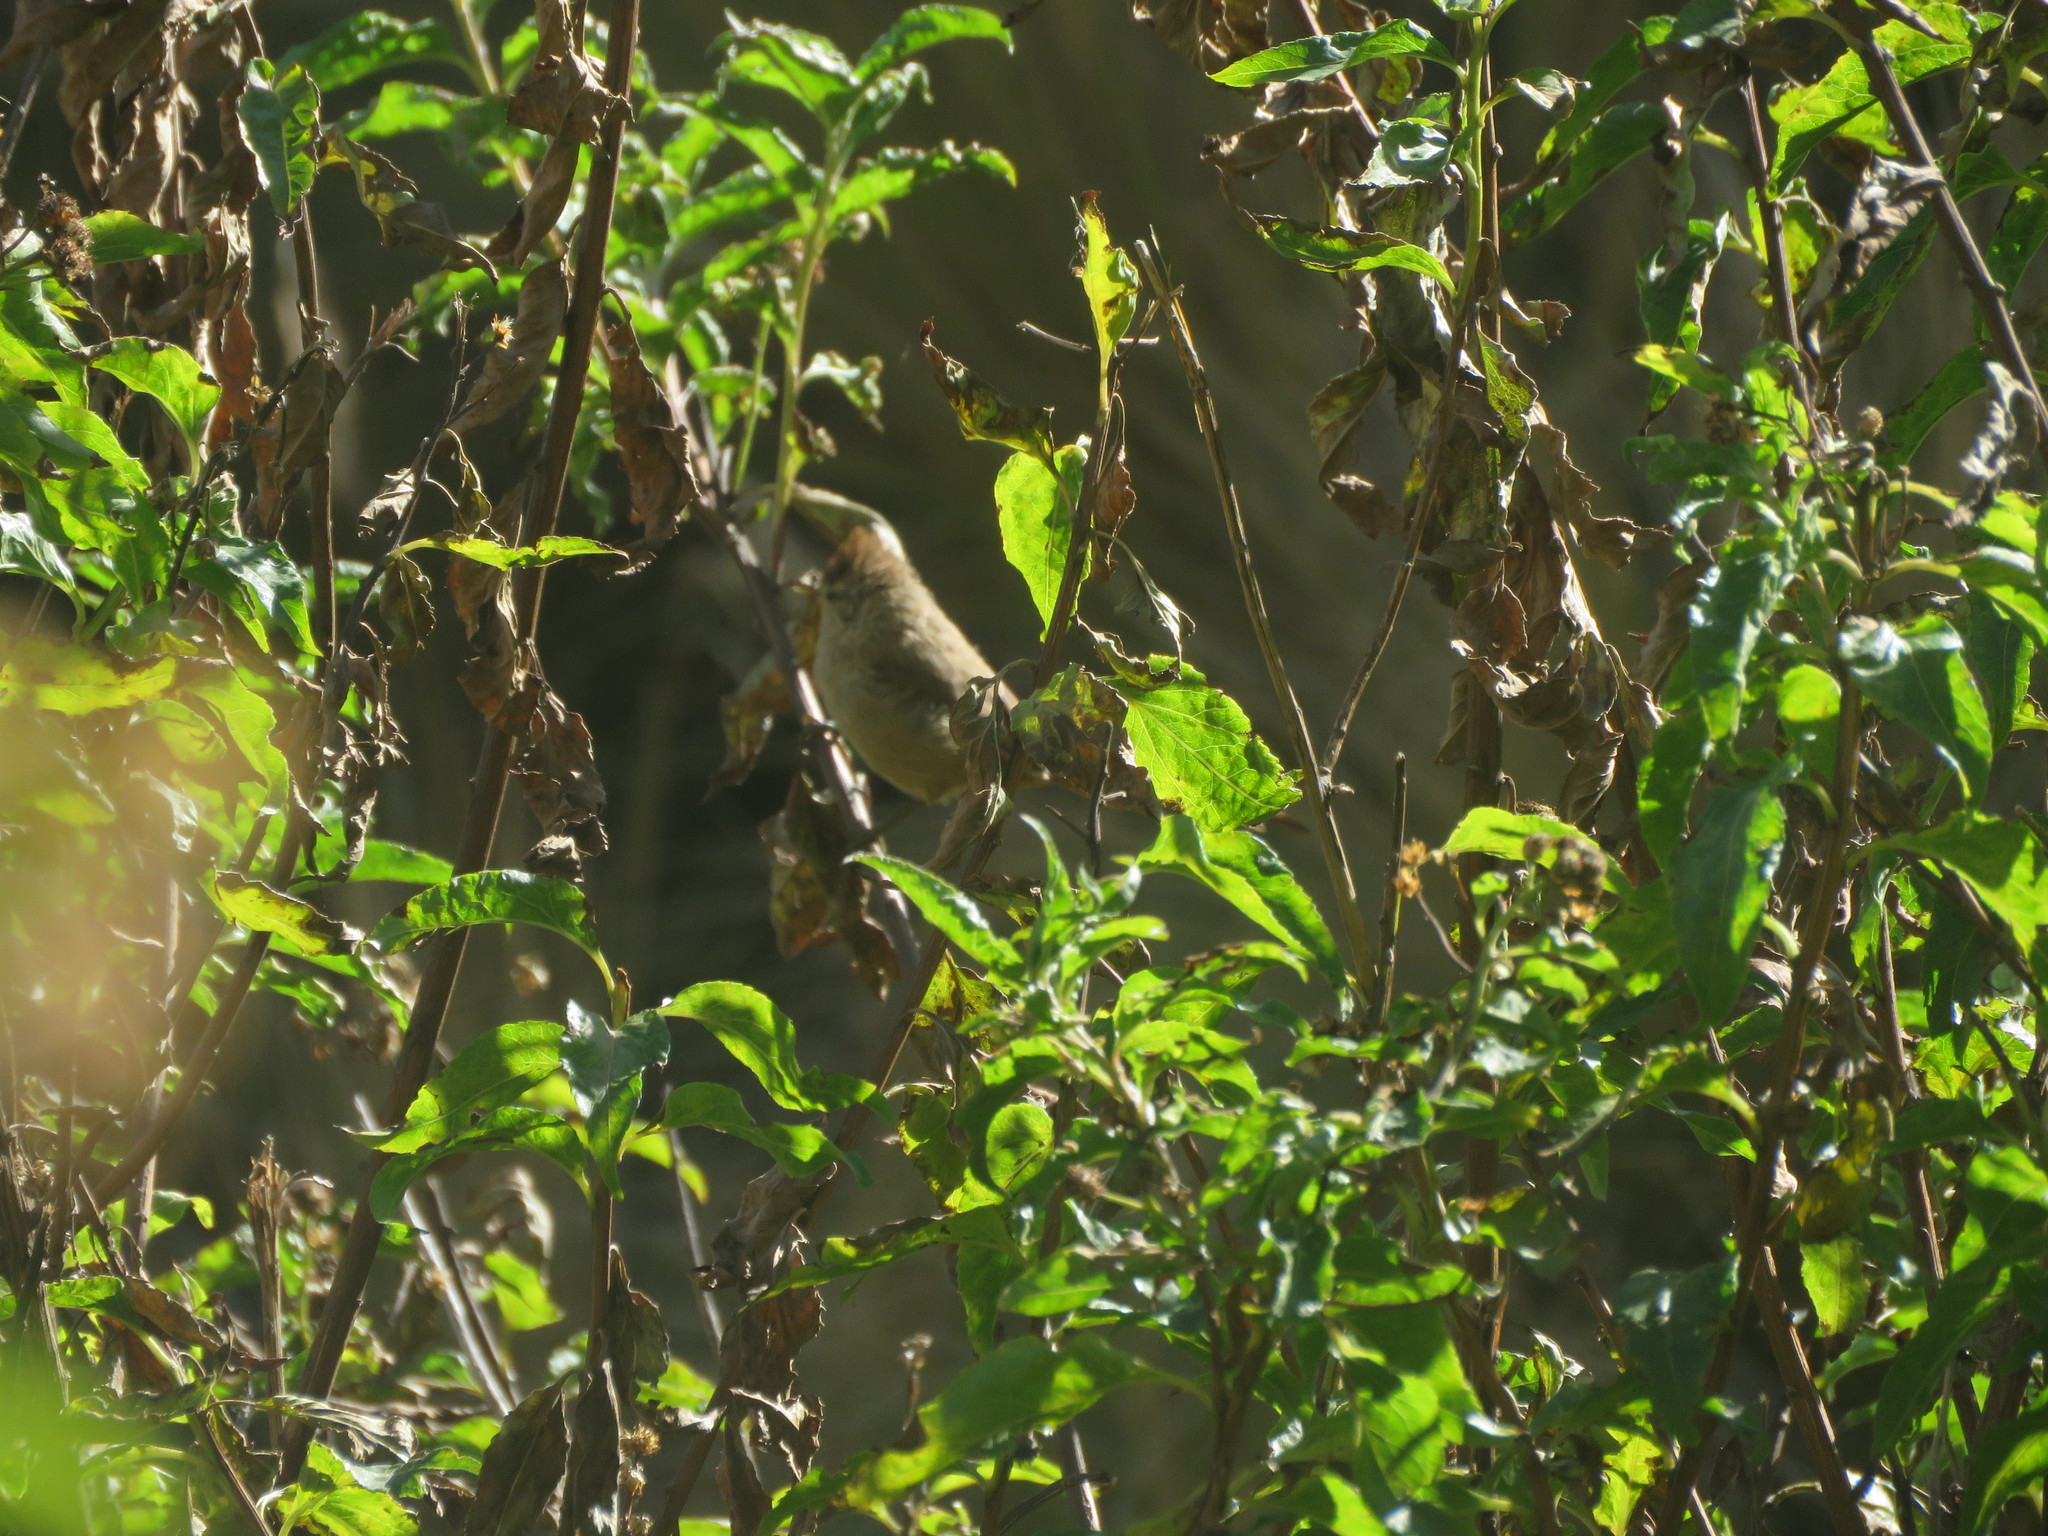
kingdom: Animalia
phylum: Chordata
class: Aves
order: Passeriformes
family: Furnariidae
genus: Leptasthenura
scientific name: Leptasthenura fuliginiceps
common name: Brown-capped tit-spinetail
